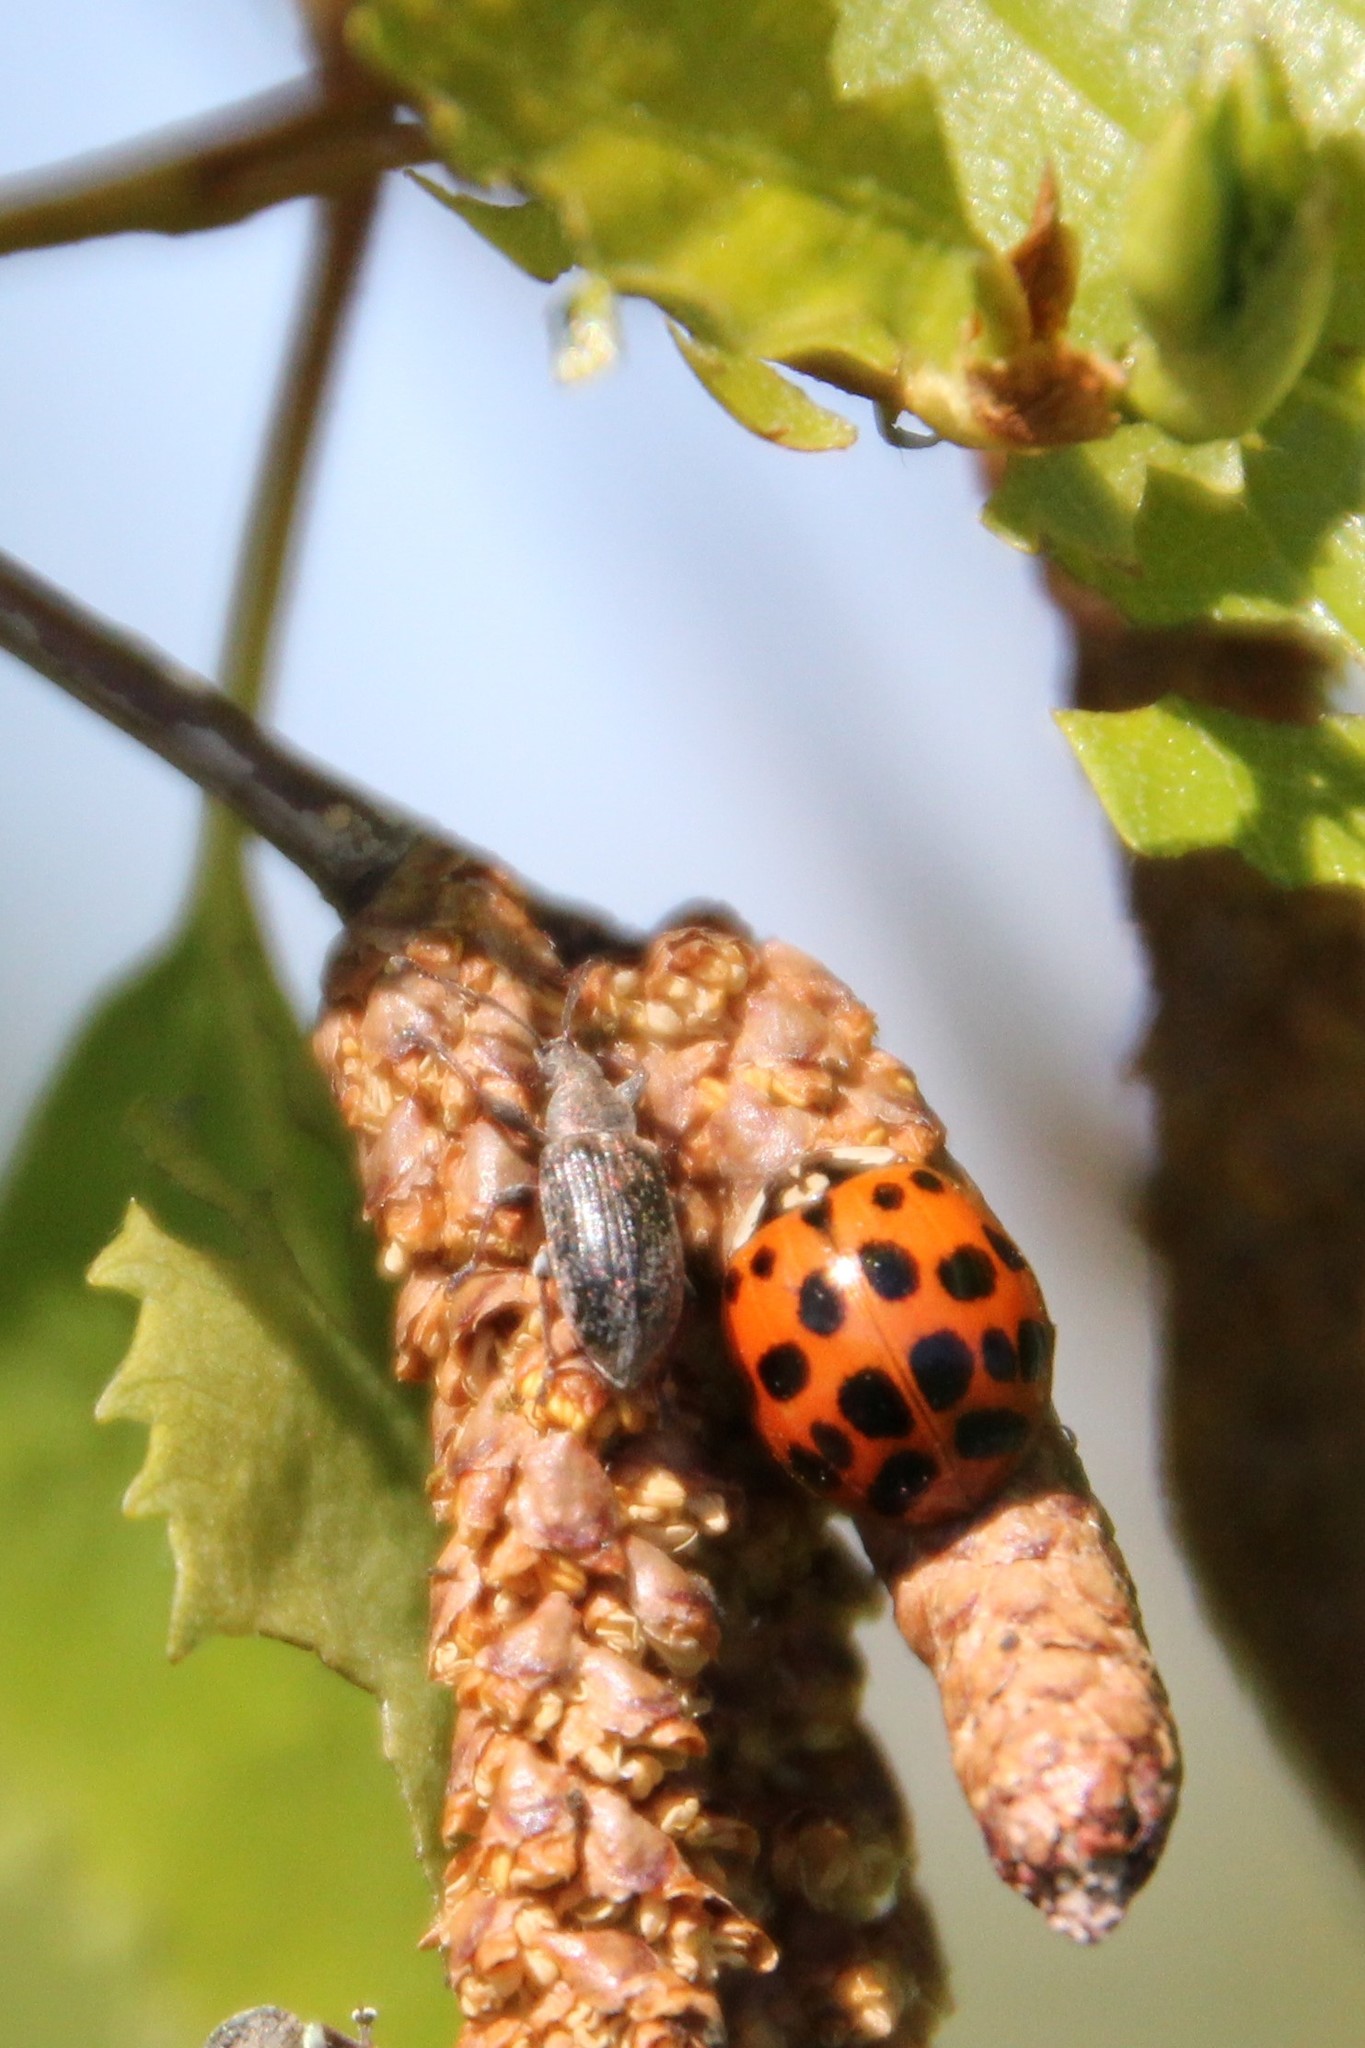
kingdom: Animalia
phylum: Arthropoda
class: Insecta
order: Coleoptera
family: Coccinellidae
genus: Harmonia
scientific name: Harmonia axyridis
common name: Harlequin ladybird
